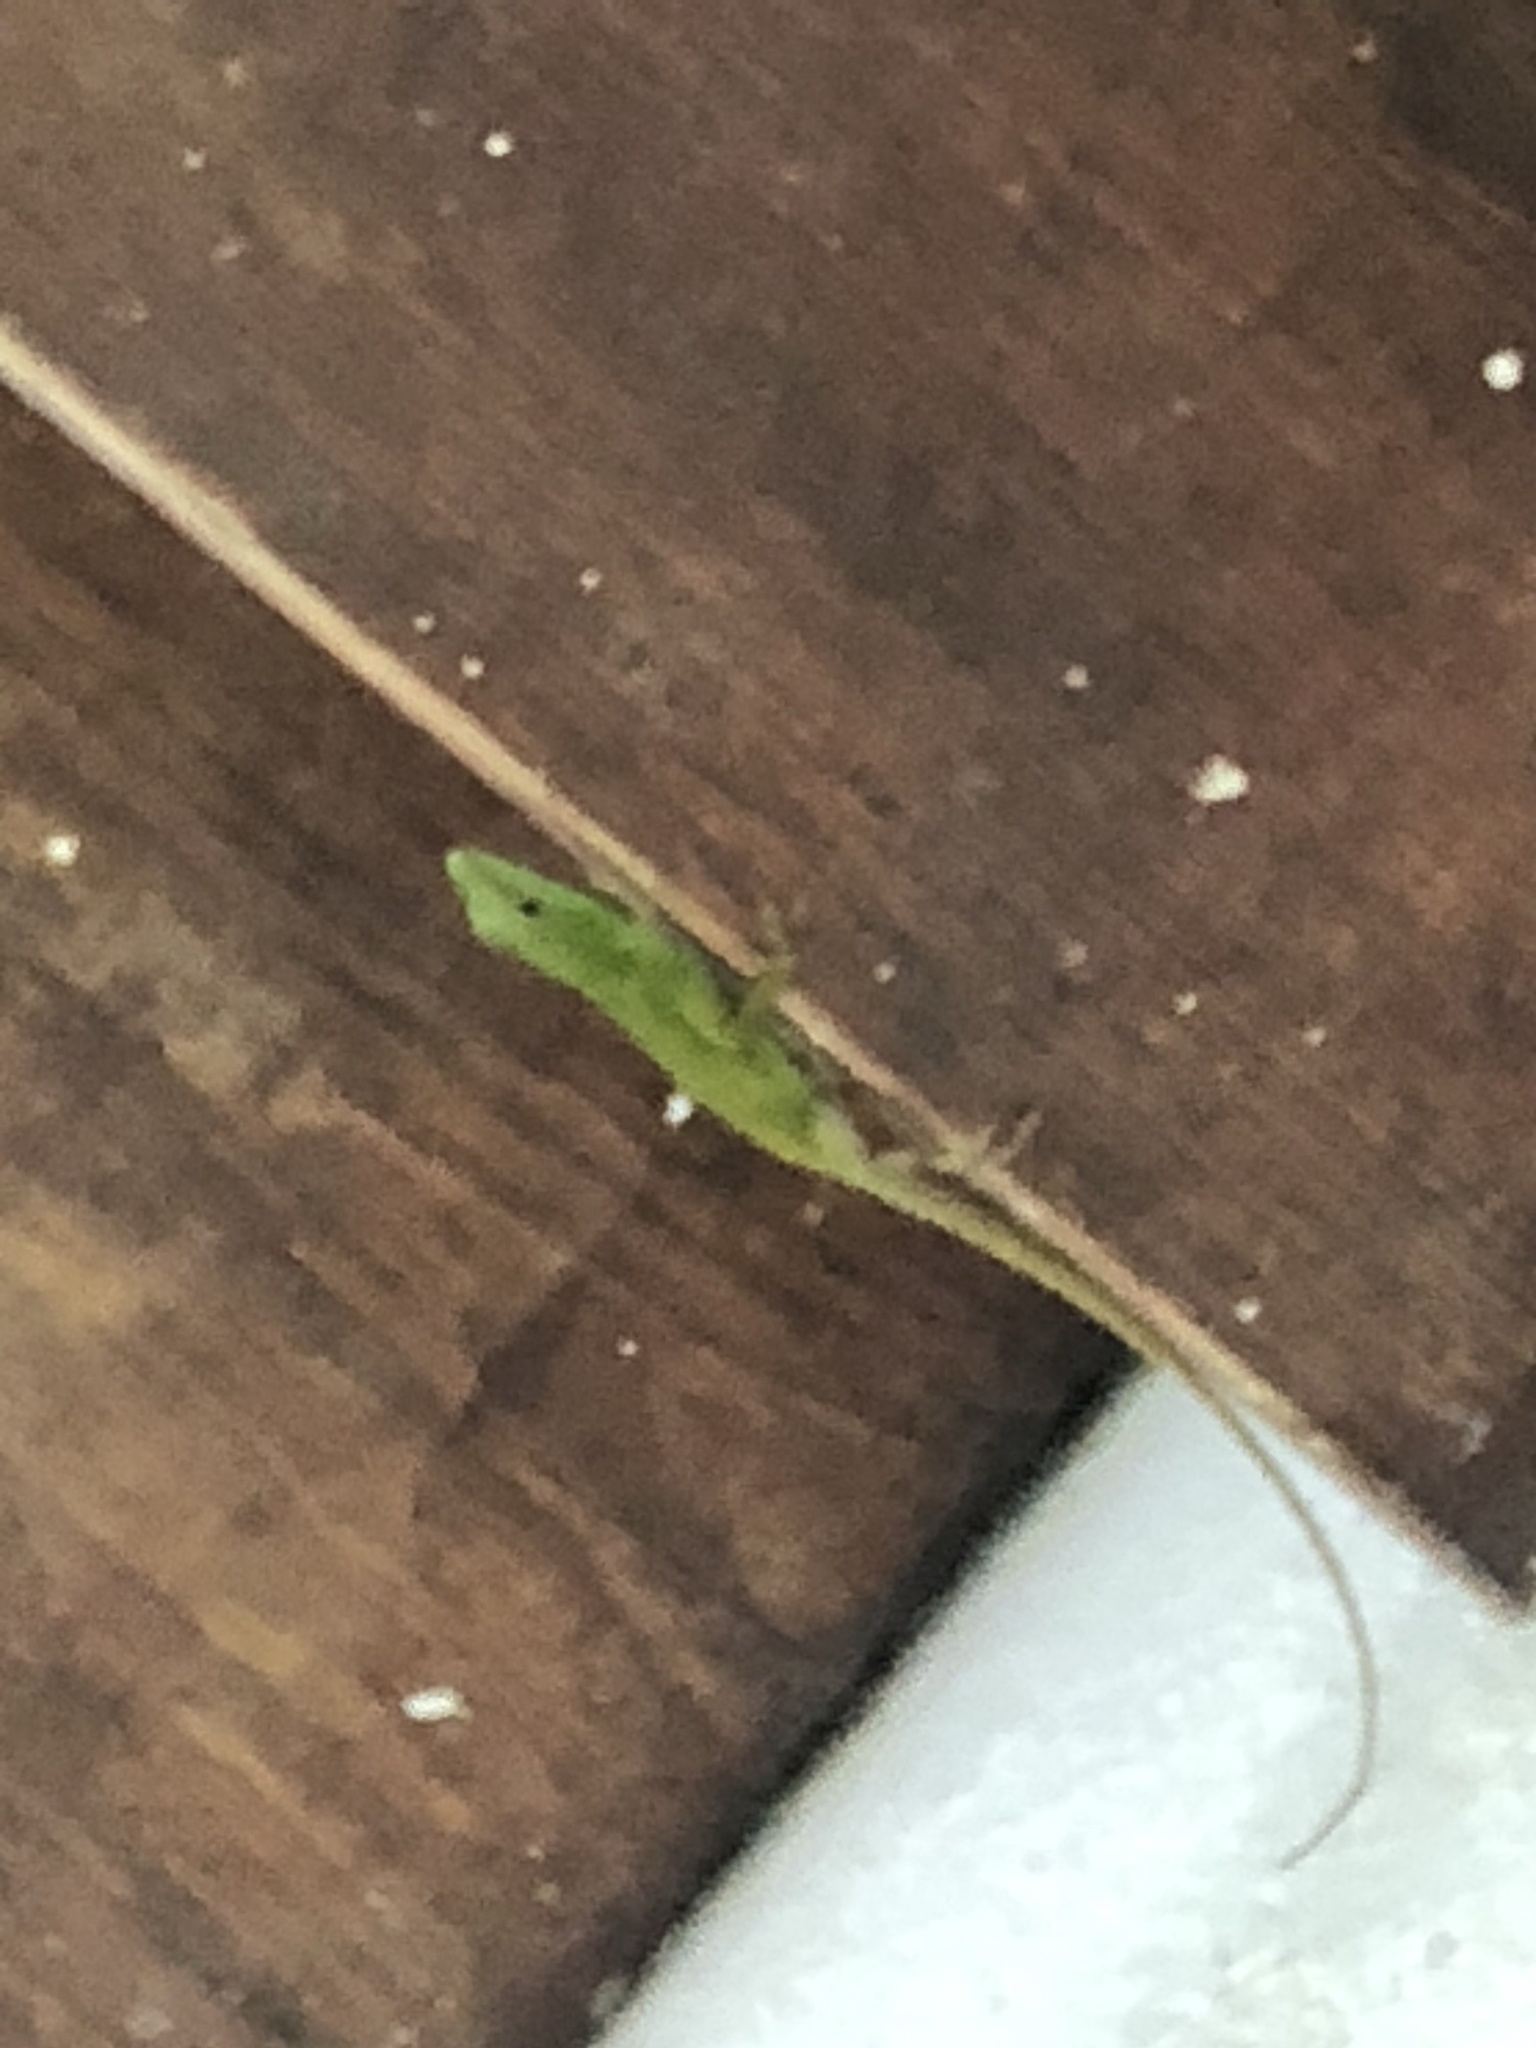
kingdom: Animalia
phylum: Chordata
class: Squamata
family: Dactyloidae
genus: Anolis
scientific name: Anolis evermanni
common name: Emerald anole
